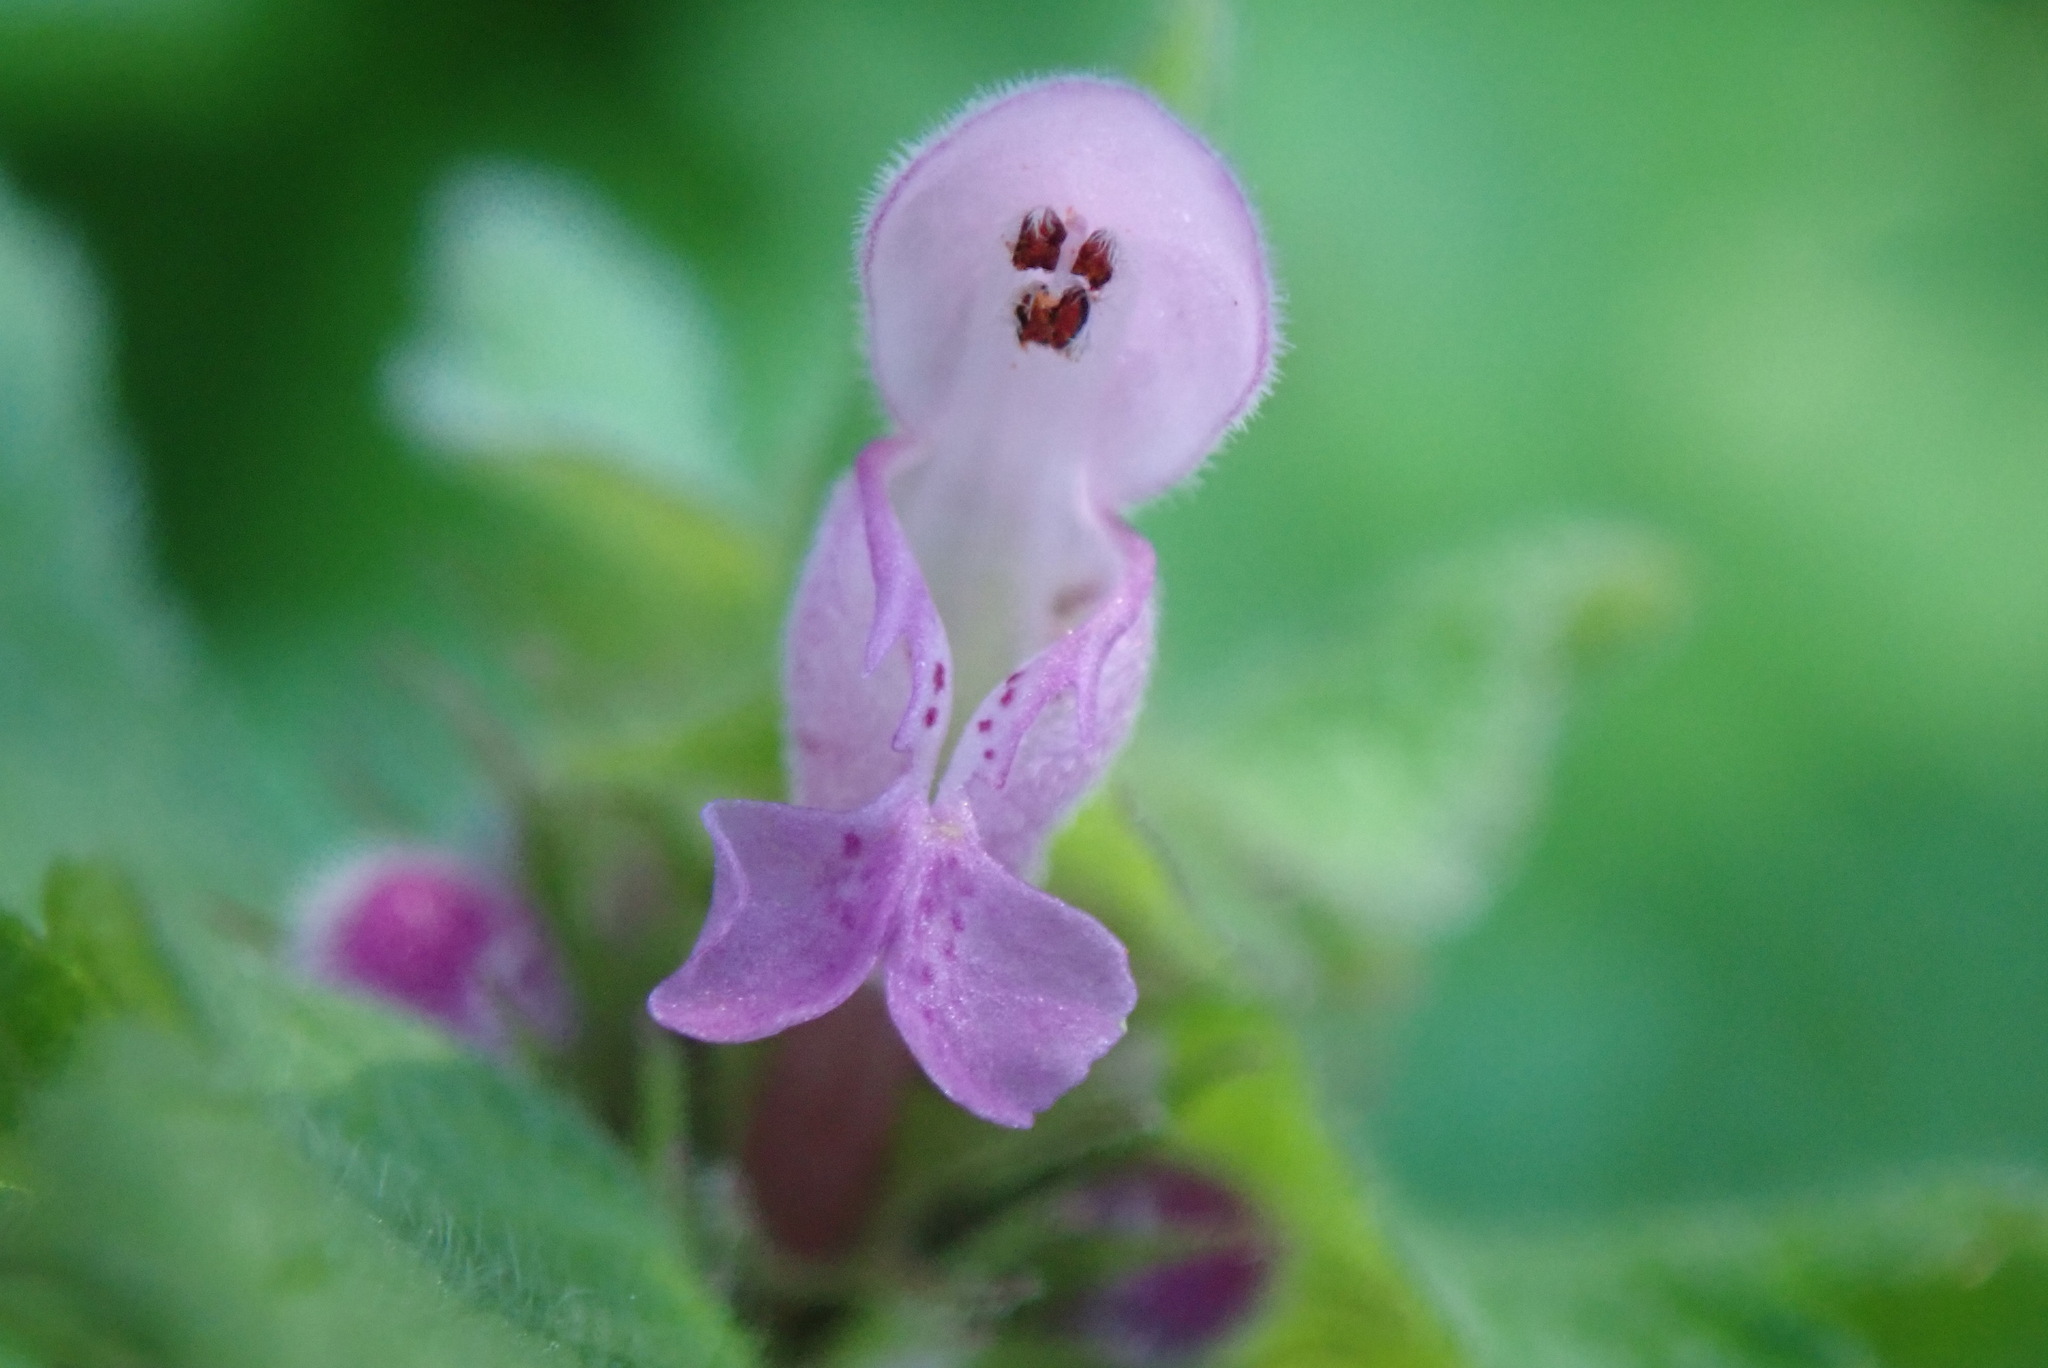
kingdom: Plantae
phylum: Tracheophyta
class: Magnoliopsida
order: Lamiales
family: Lamiaceae
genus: Lamium
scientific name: Lamium purpureum
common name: Red dead-nettle
